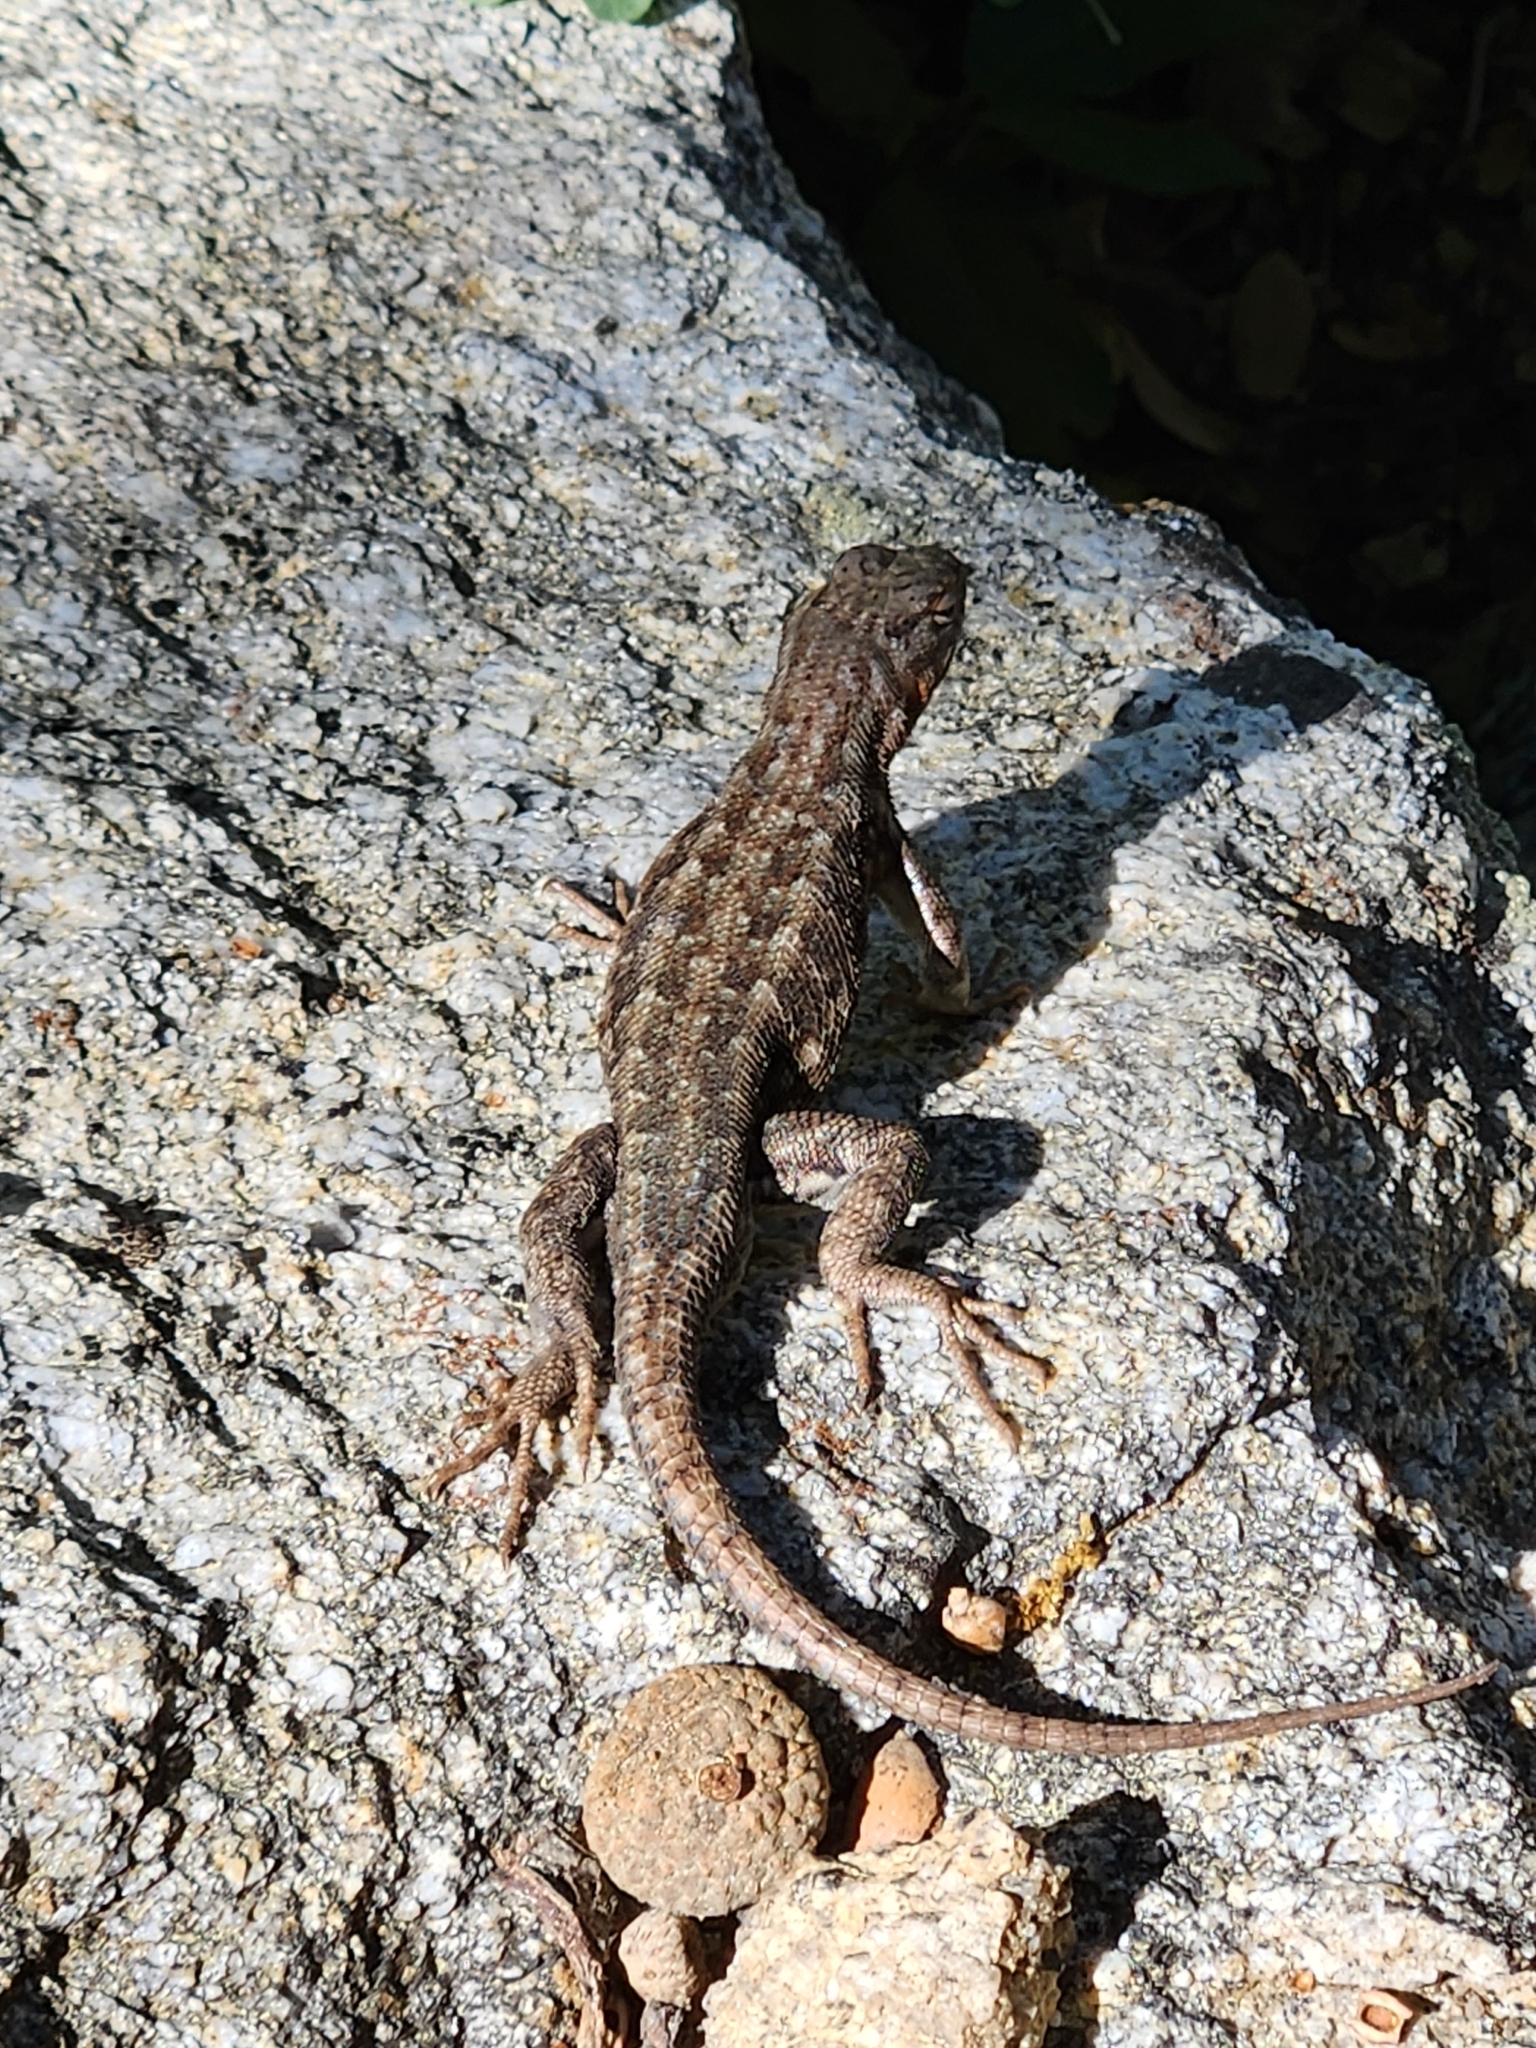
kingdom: Animalia
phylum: Chordata
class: Squamata
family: Phrynosomatidae
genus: Sceloporus
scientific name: Sceloporus occidentalis
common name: Western fence lizard
